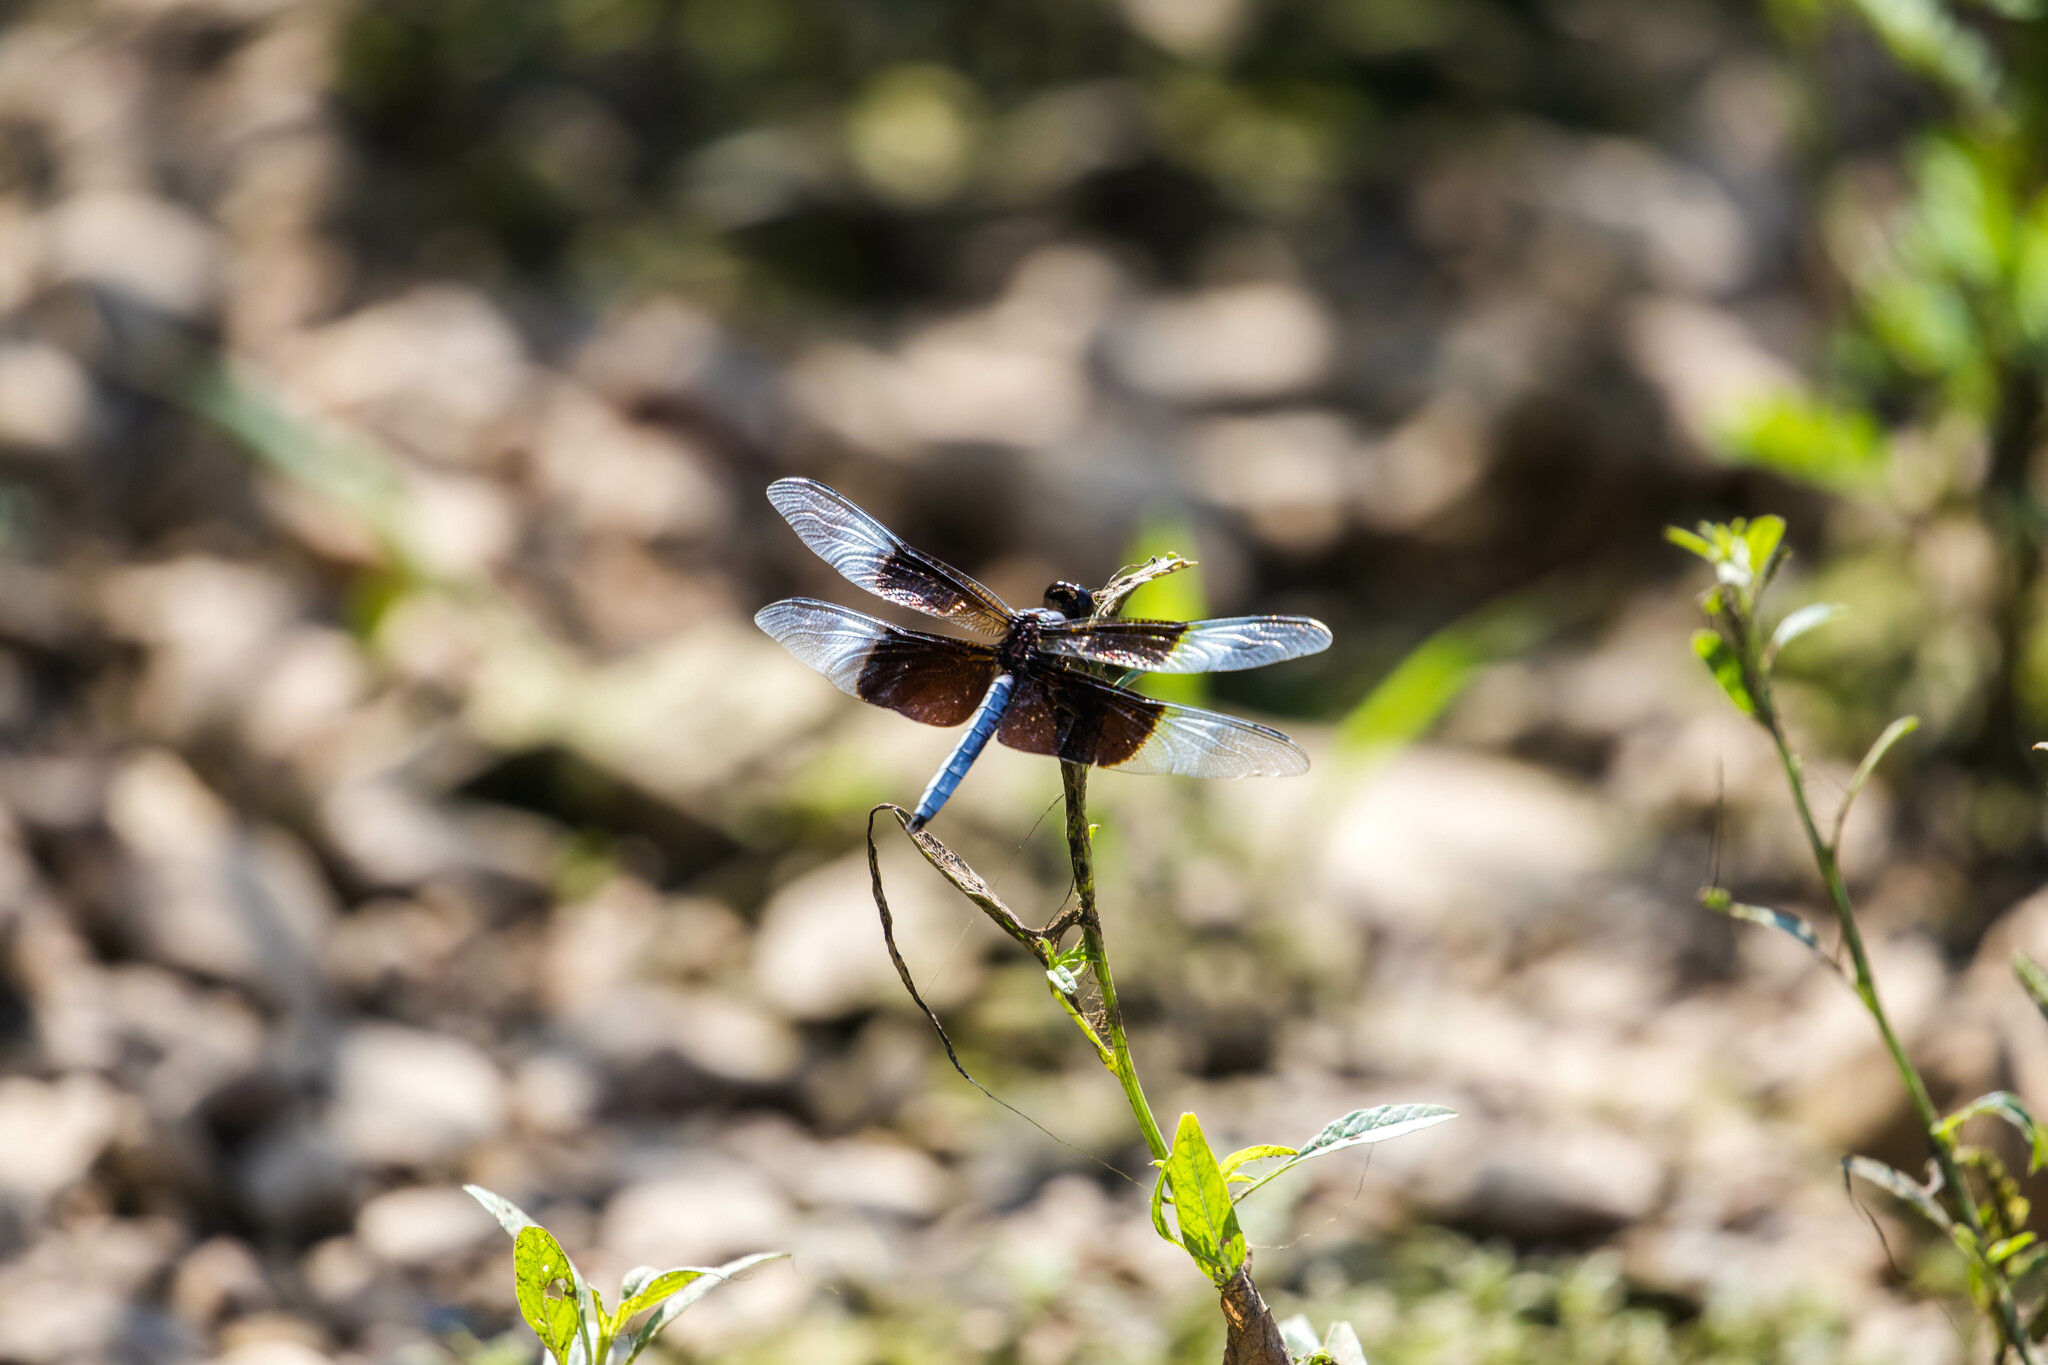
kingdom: Animalia
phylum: Arthropoda
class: Insecta
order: Odonata
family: Libellulidae
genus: Libellula
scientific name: Libellula luctuosa
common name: Widow skimmer
